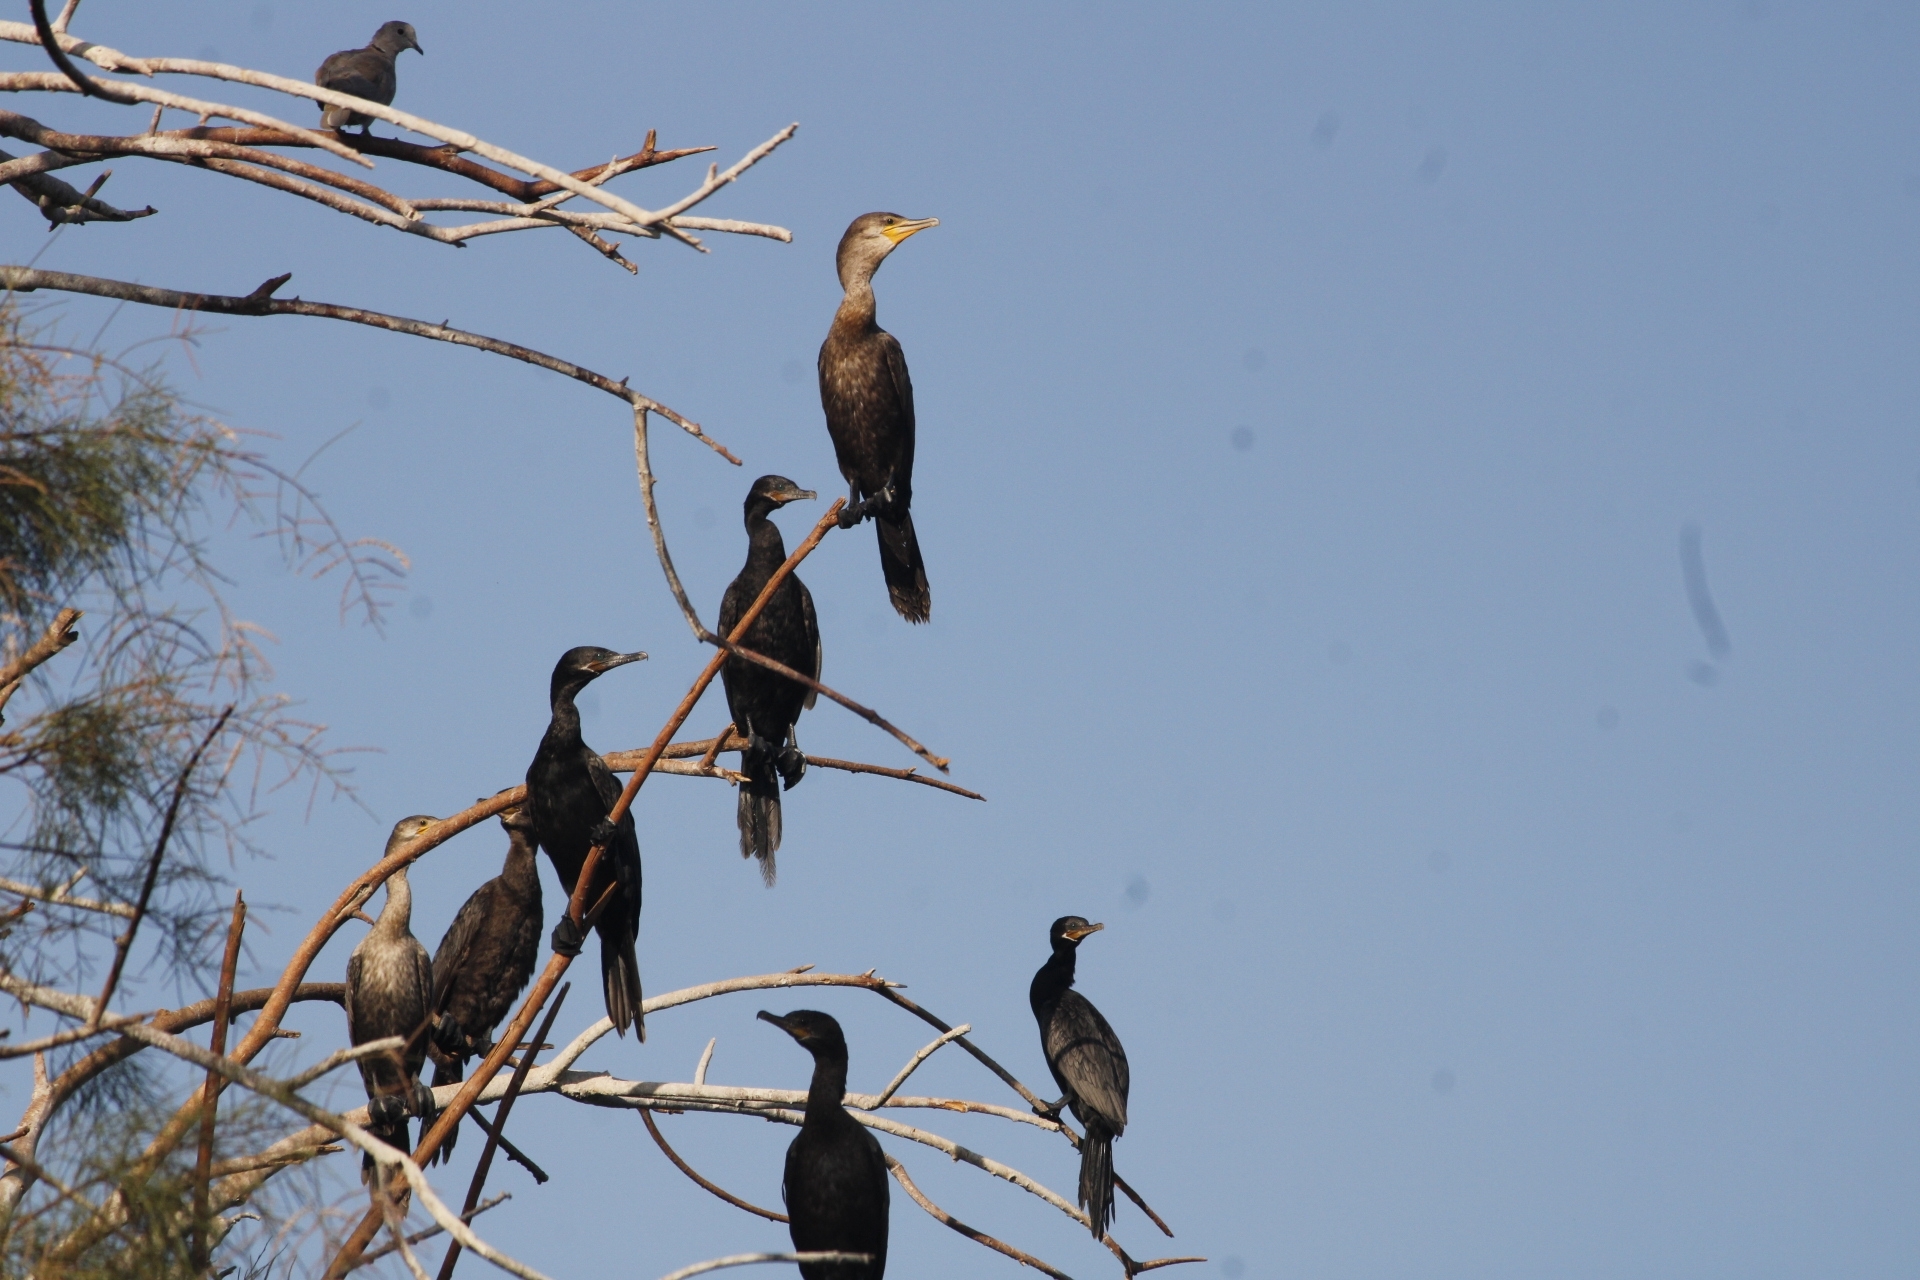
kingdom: Animalia
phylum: Chordata
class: Aves
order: Suliformes
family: Phalacrocoracidae
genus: Phalacrocorax
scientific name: Phalacrocorax brasilianus
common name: Neotropic cormorant
